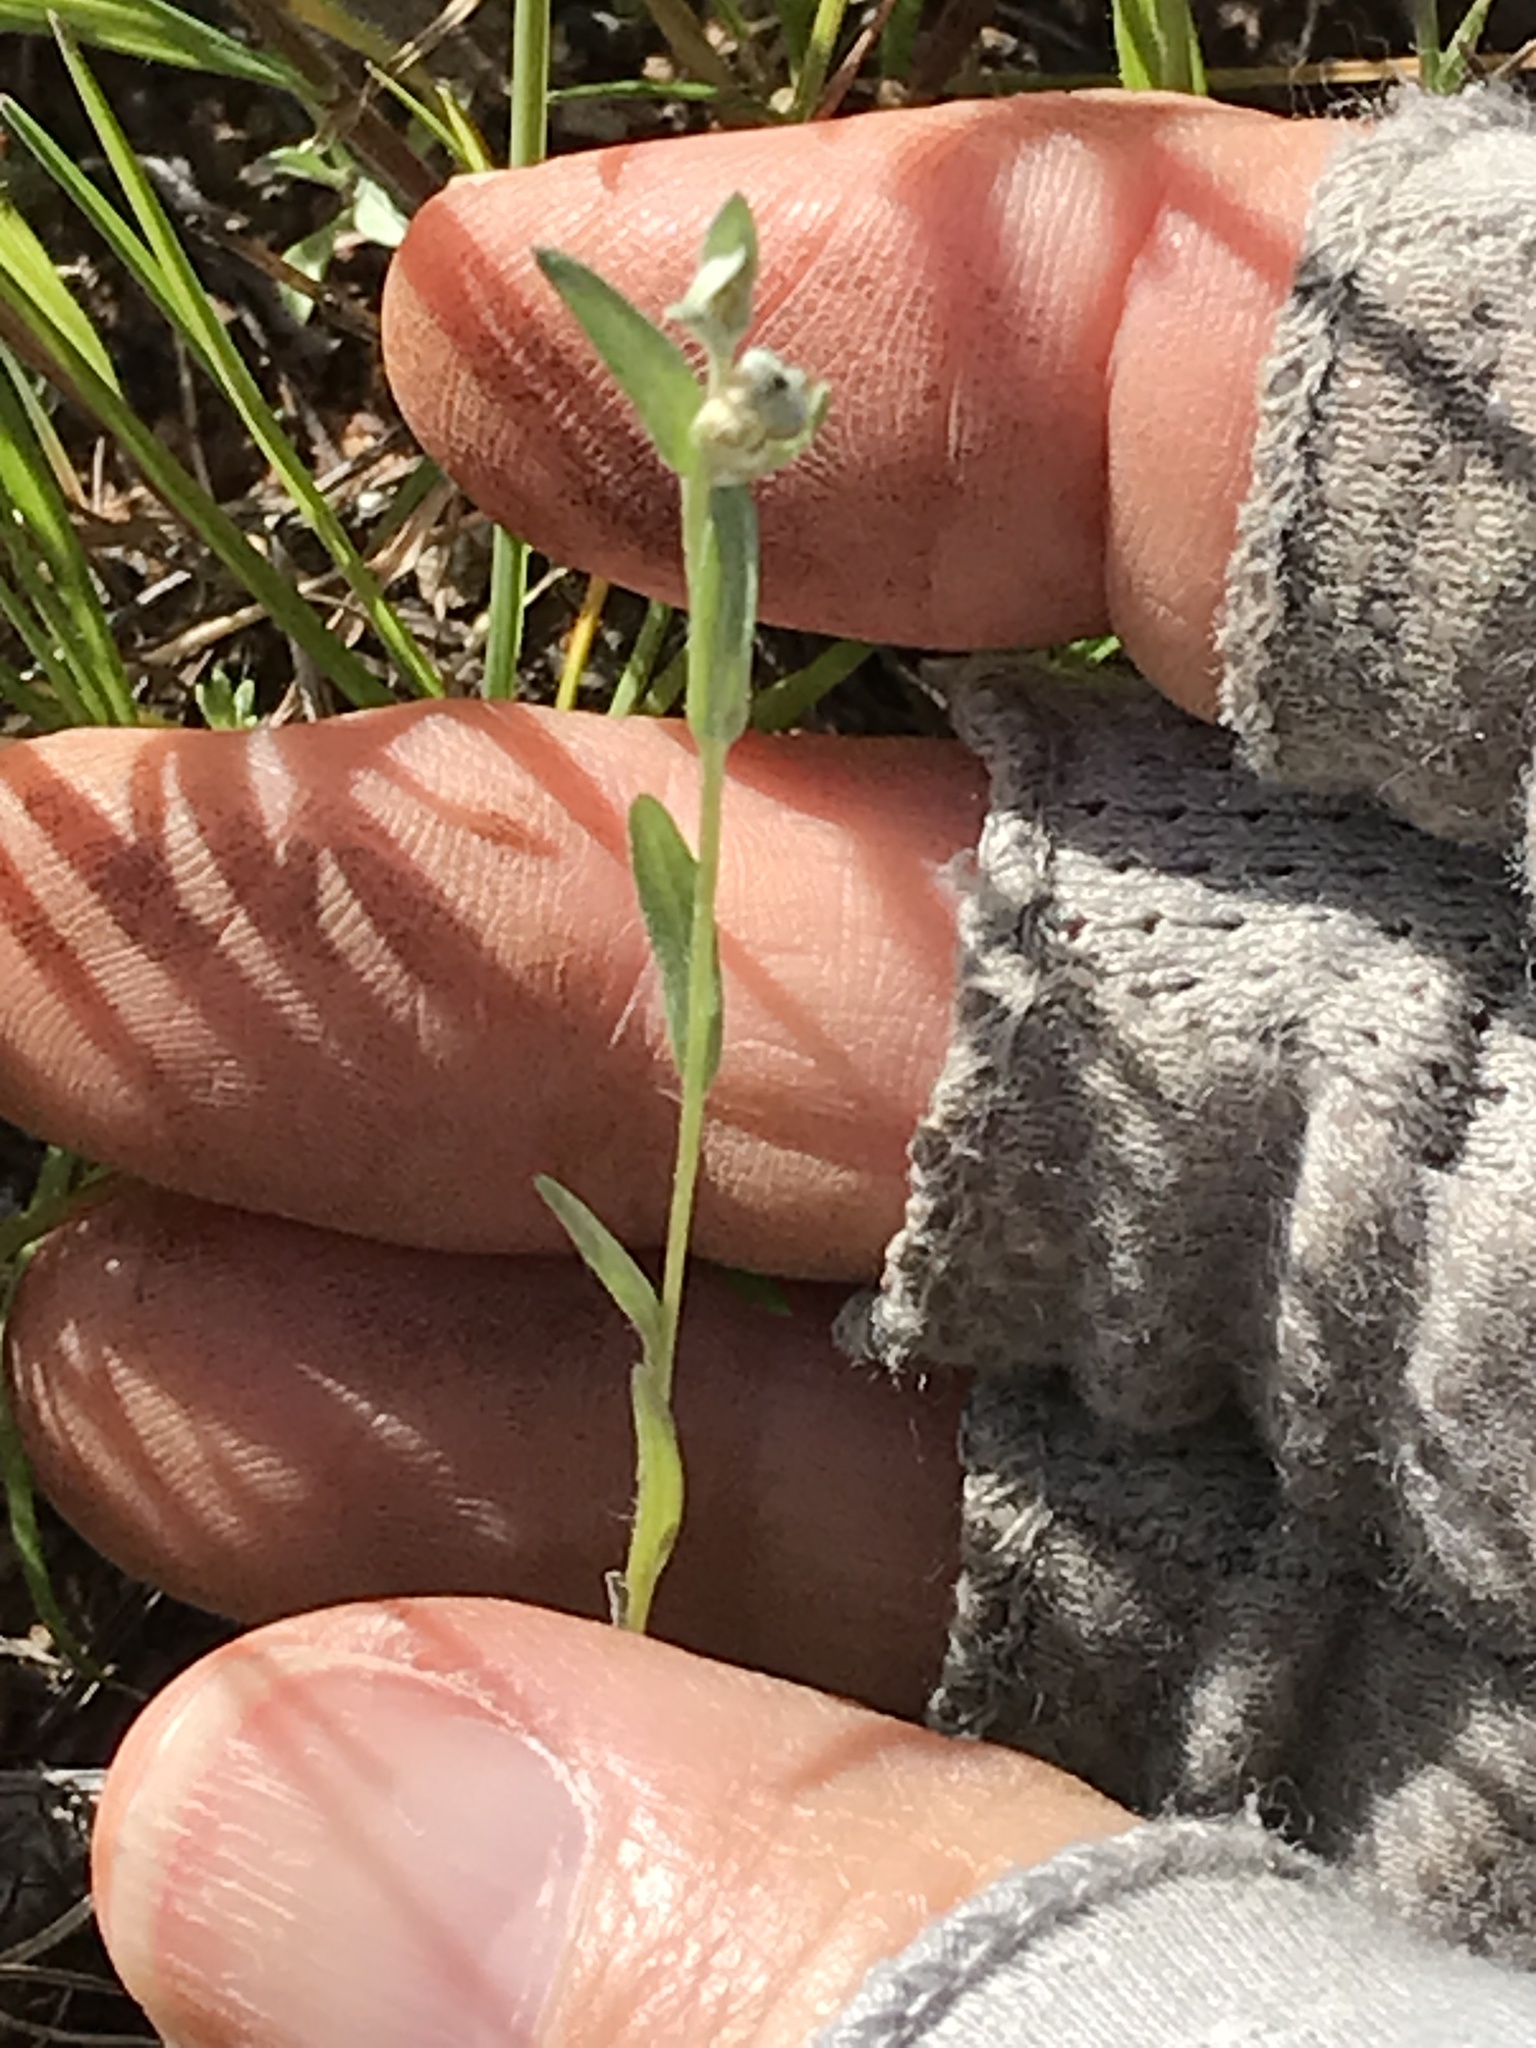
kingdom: Plantae
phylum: Tracheophyta
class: Magnoliopsida
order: Asterales
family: Asteraceae
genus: Bombycilaena
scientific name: Bombycilaena californica
